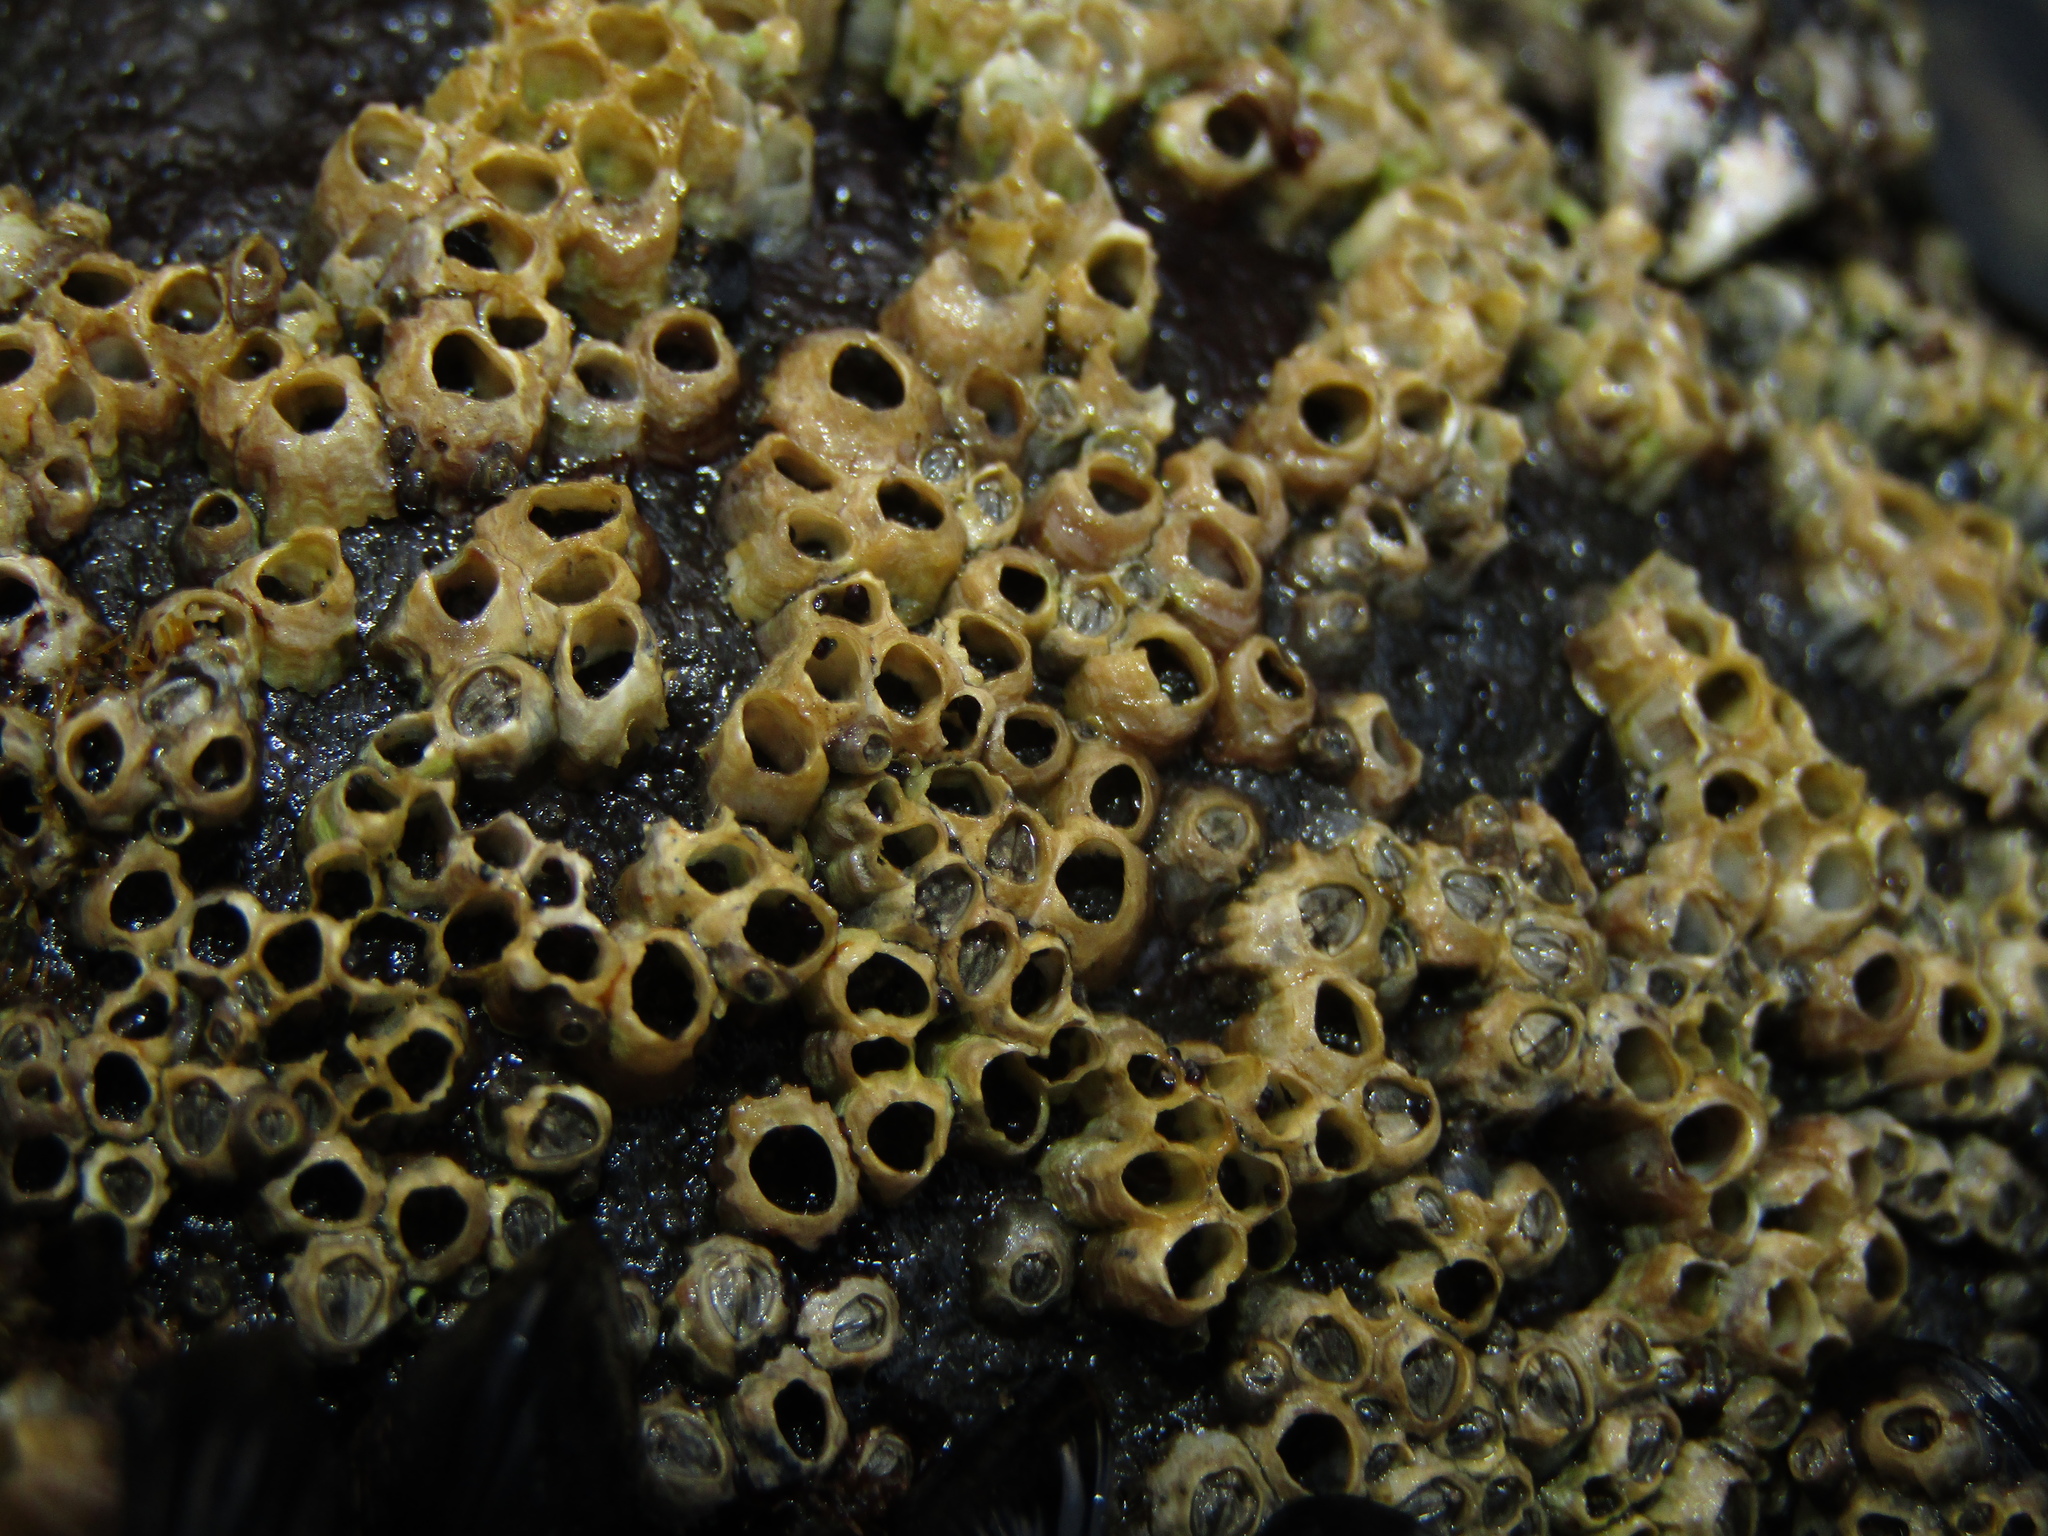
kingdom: Animalia
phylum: Arthropoda
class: Maxillopoda
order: Sessilia
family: Chthamalidae
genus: Chamaesipho
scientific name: Chamaesipho columna
